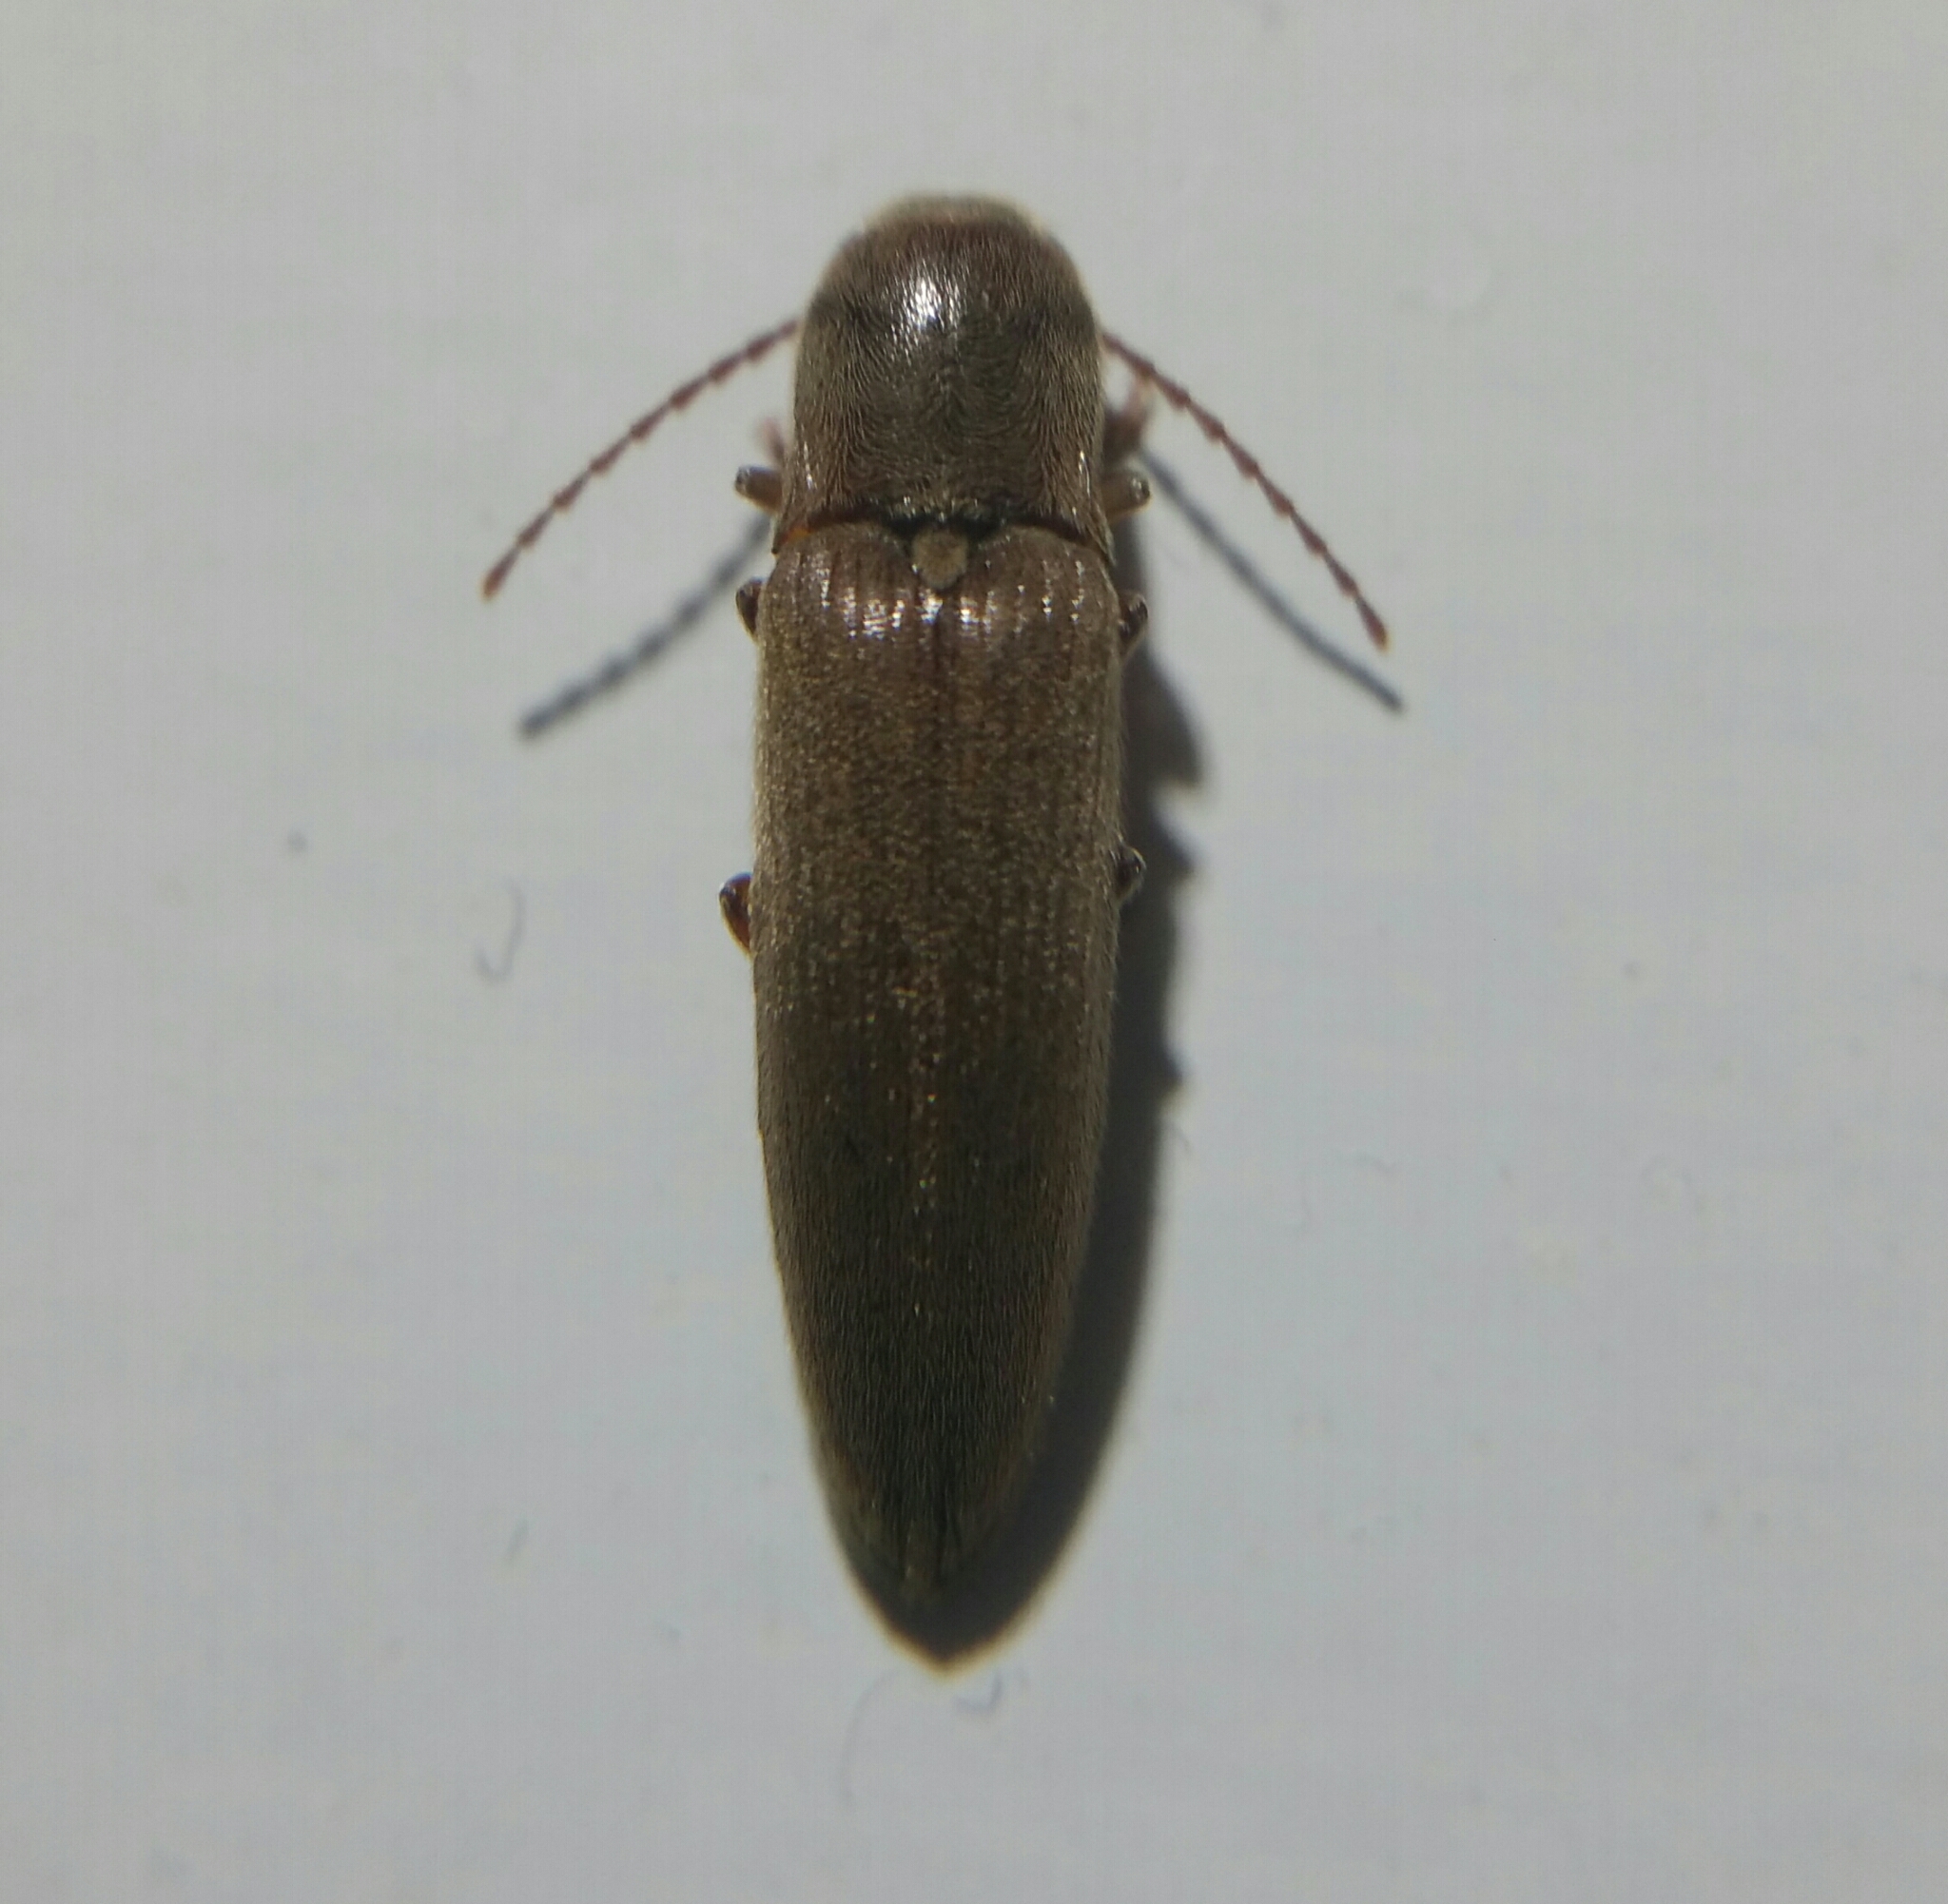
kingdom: Animalia
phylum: Arthropoda
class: Insecta
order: Coleoptera
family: Elateridae
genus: Synaptus
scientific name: Synaptus filiformis
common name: Hairy click beetle
